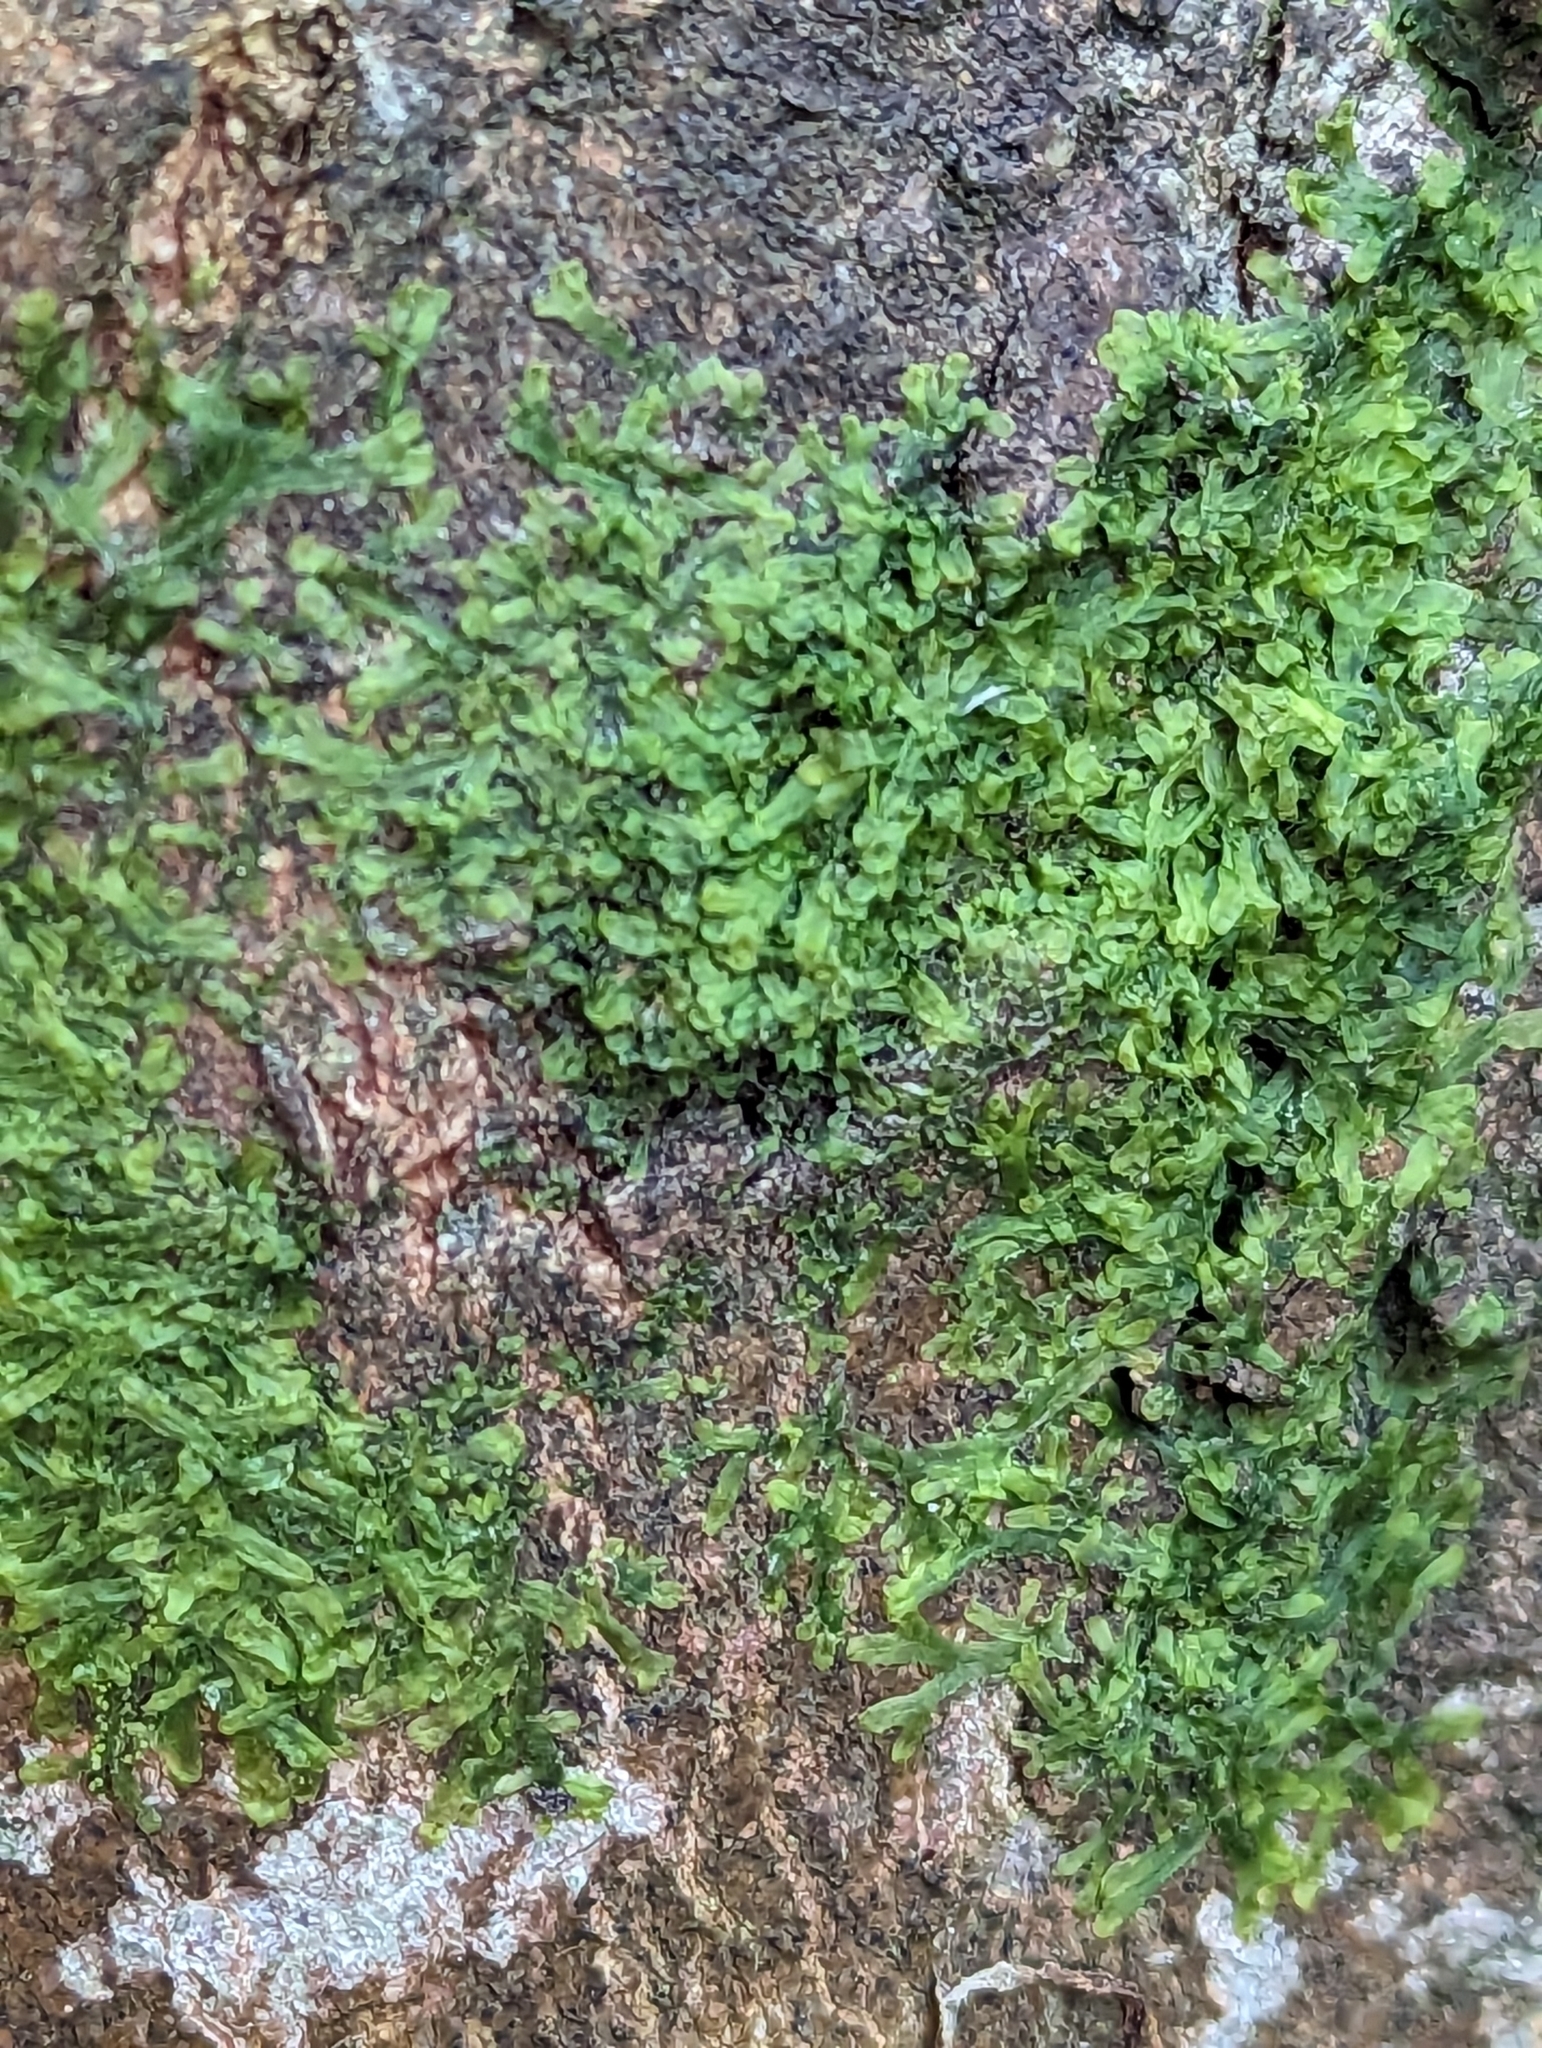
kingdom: Plantae
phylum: Marchantiophyta
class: Jungermanniopsida
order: Metzgeriales
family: Metzgeriaceae
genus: Metzgeria
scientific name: Metzgeria furcata
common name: Forked veilwort
